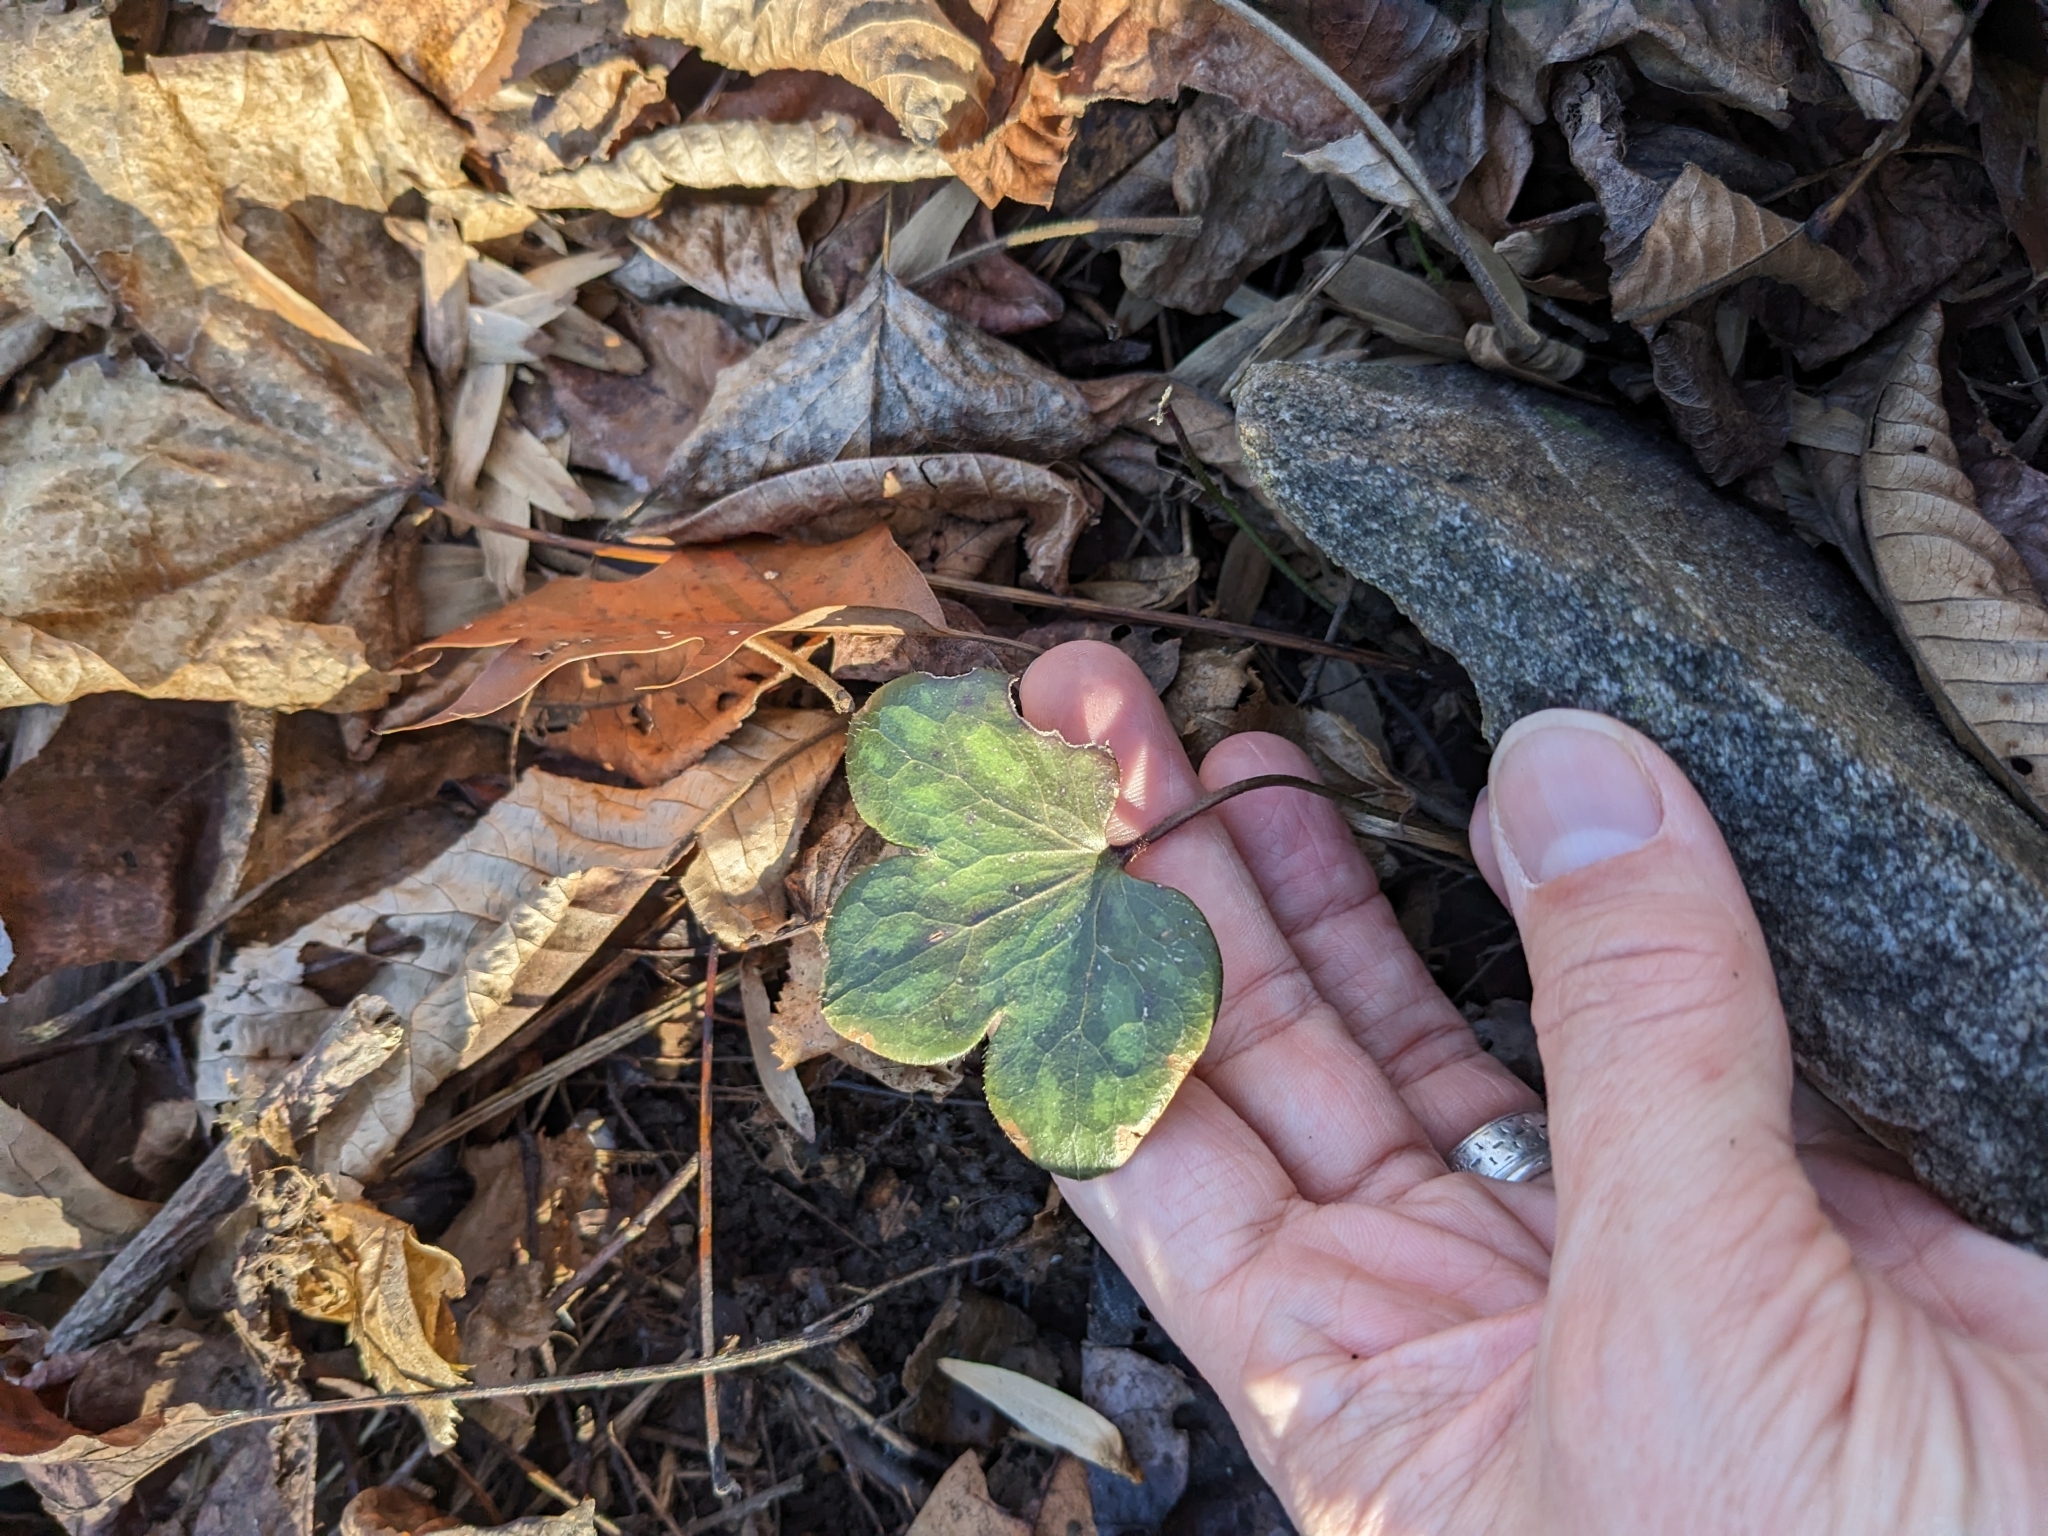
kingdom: Plantae
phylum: Tracheophyta
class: Magnoliopsida
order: Ranunculales
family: Ranunculaceae
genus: Hepatica
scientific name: Hepatica americana
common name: American hepatica
